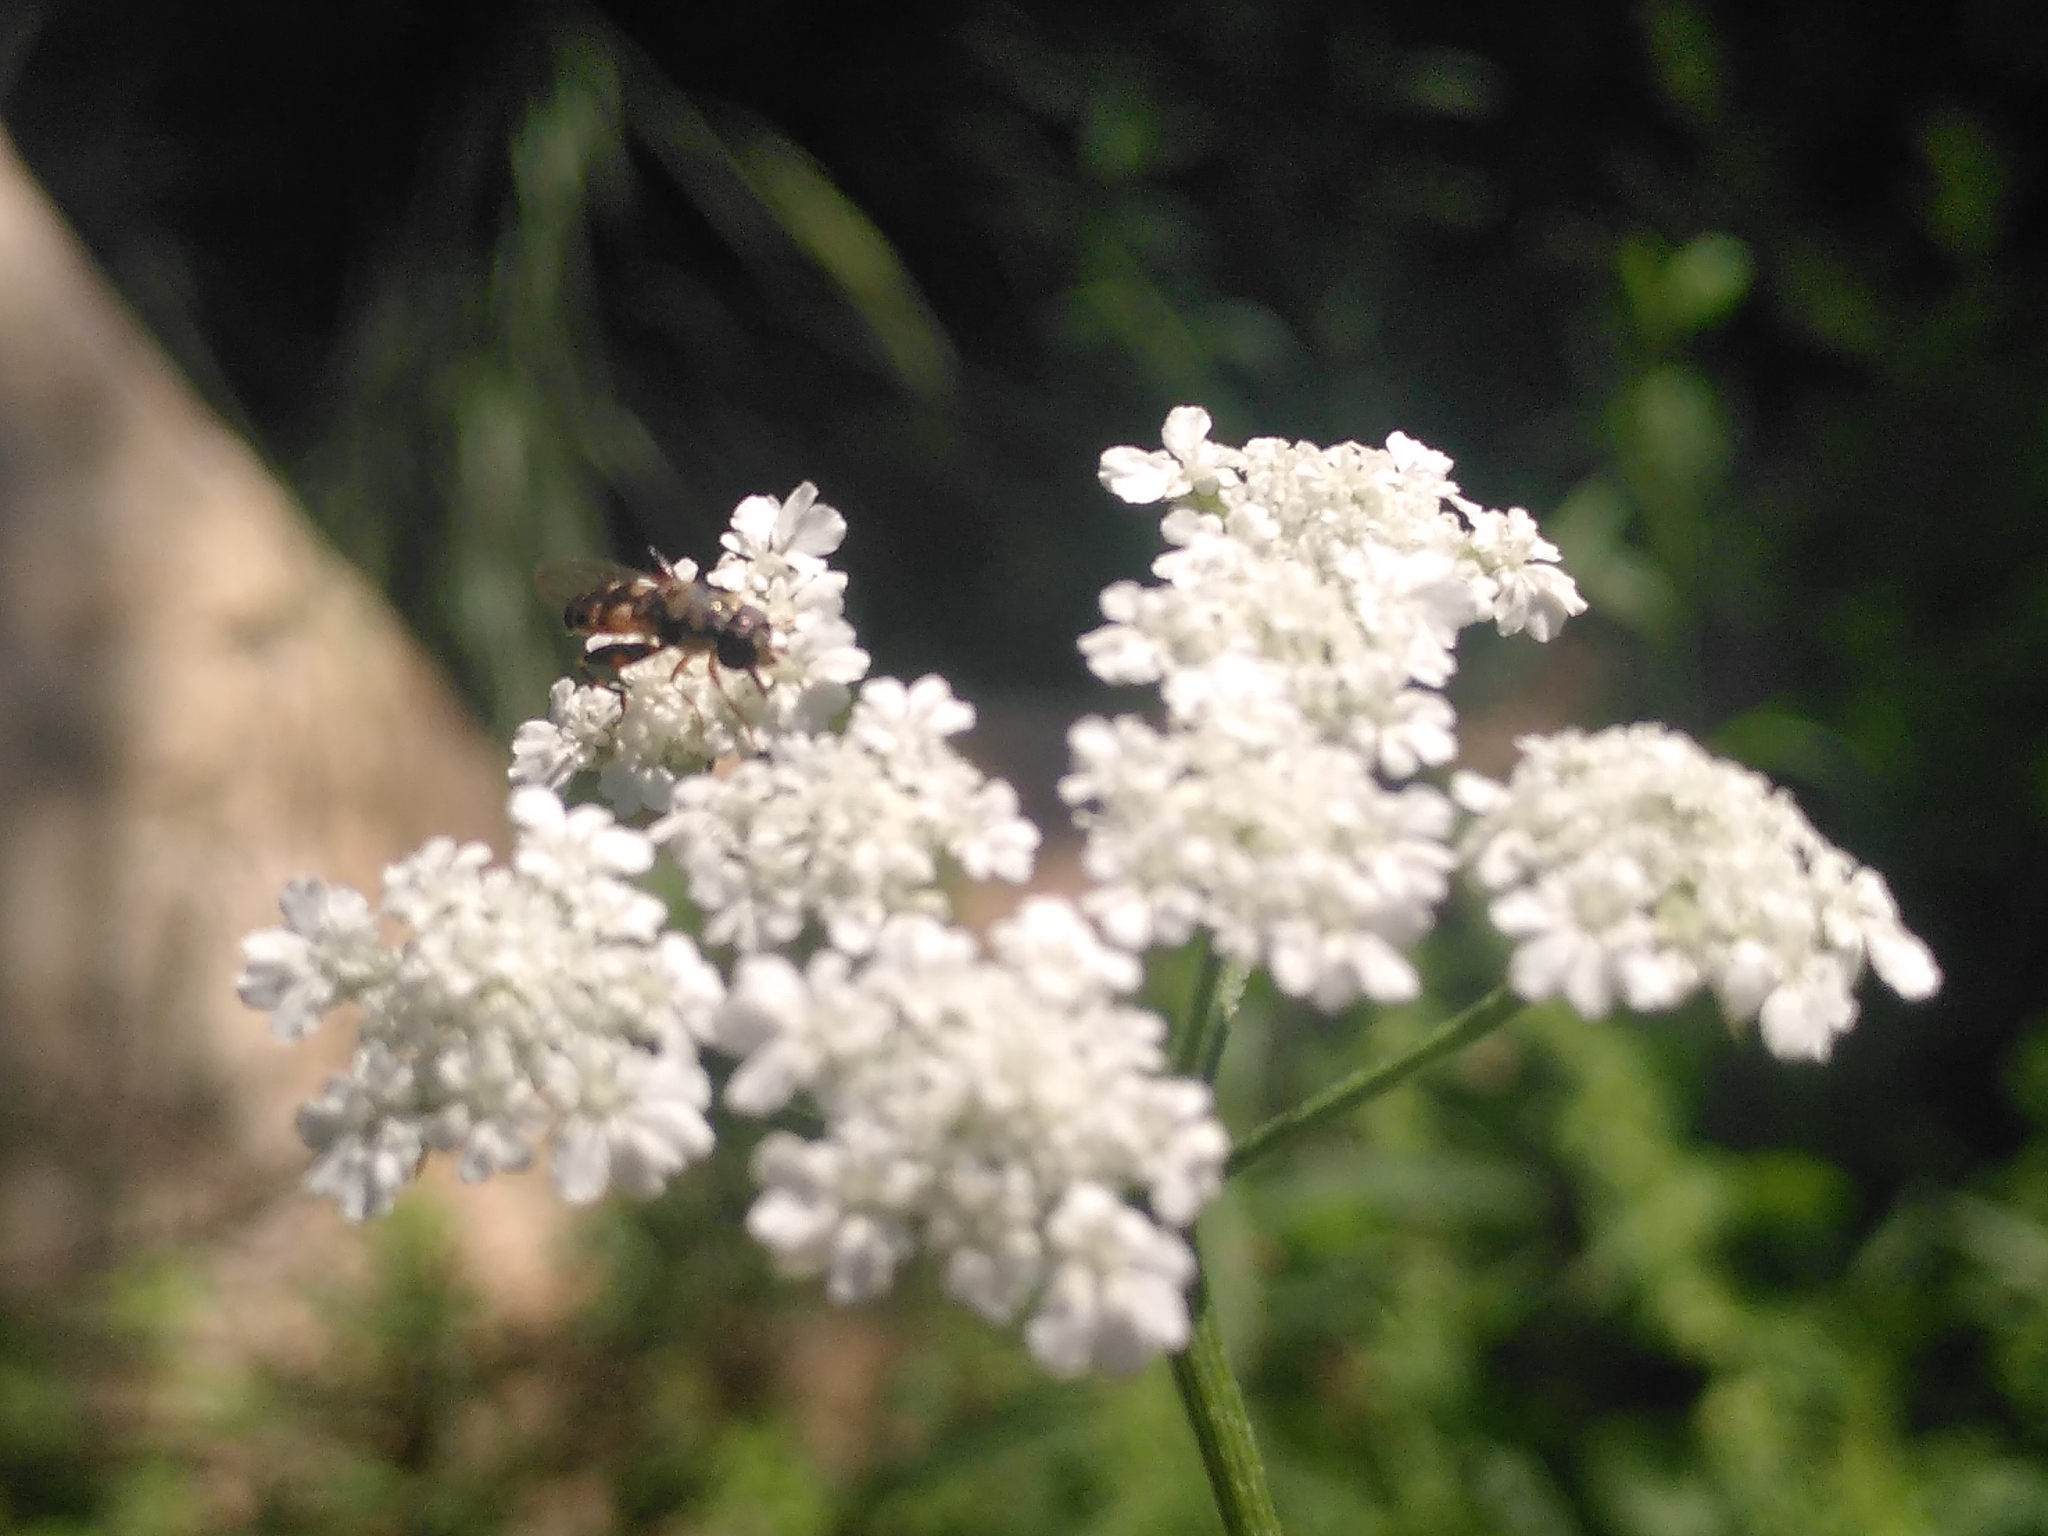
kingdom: Animalia
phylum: Arthropoda
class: Insecta
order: Diptera
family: Syrphidae
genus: Syritta
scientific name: Syritta pipiens
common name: Hover fly
